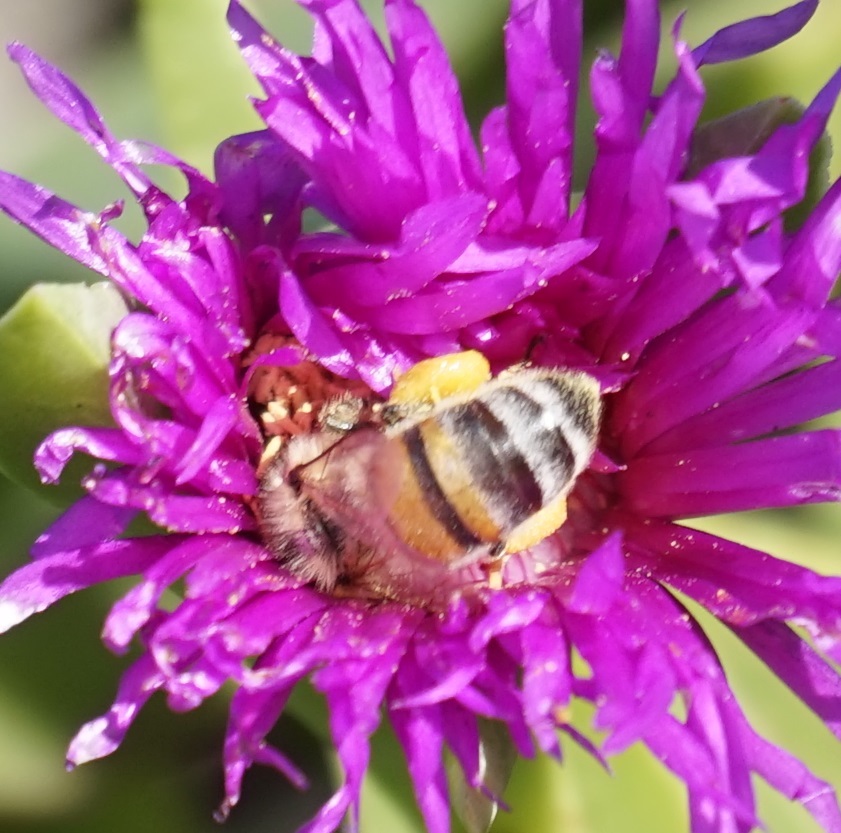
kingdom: Animalia
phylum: Arthropoda
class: Insecta
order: Hymenoptera
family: Apidae
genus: Apis
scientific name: Apis mellifera
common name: Honey bee
